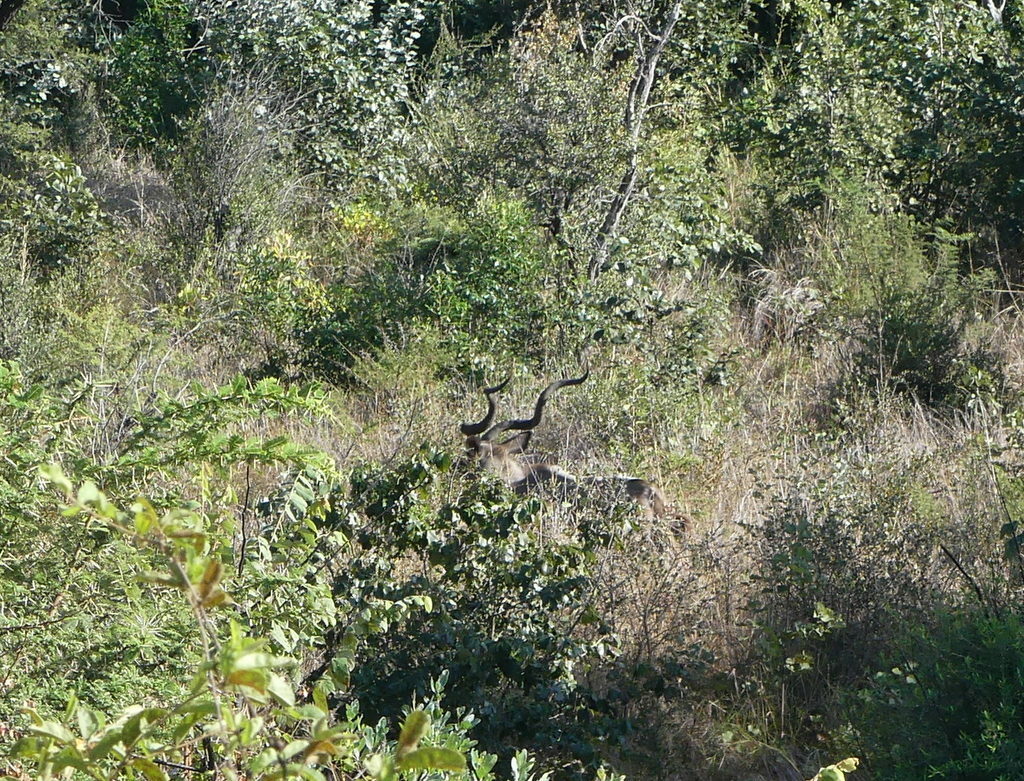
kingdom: Animalia
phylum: Chordata
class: Mammalia
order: Artiodactyla
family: Bovidae
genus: Tragelaphus
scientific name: Tragelaphus strepsiceros
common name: Greater kudu
